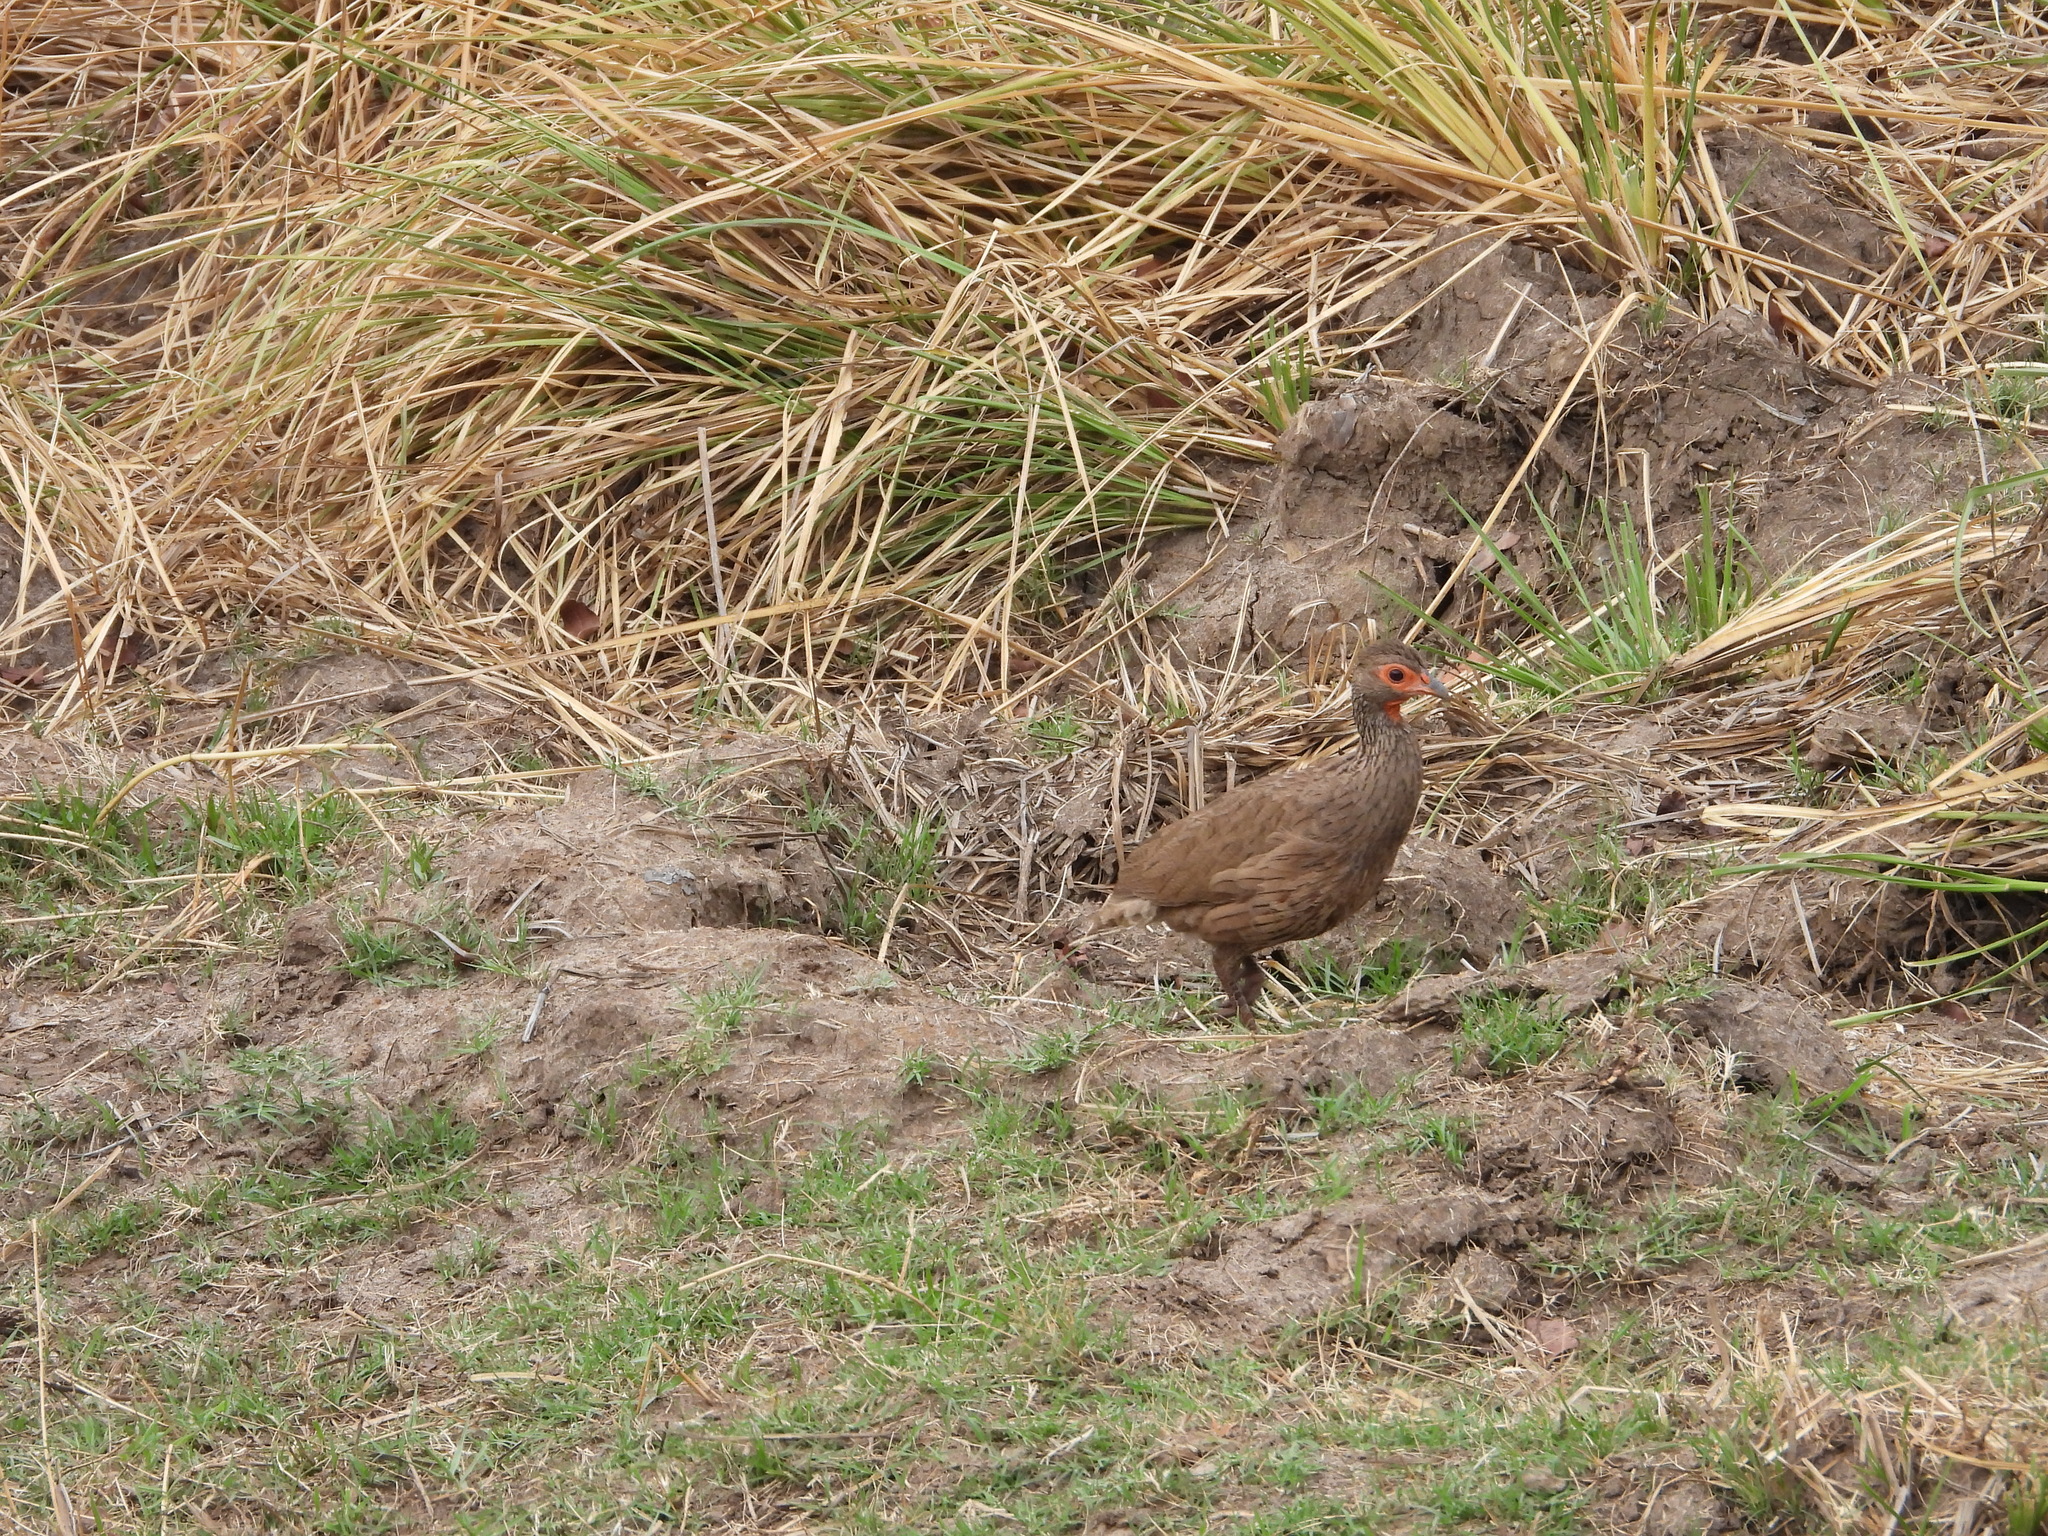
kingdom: Animalia
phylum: Chordata
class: Aves
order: Galliformes
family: Phasianidae
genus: Pternistis
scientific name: Pternistis swainsonii
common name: Swainson's spurfowl
